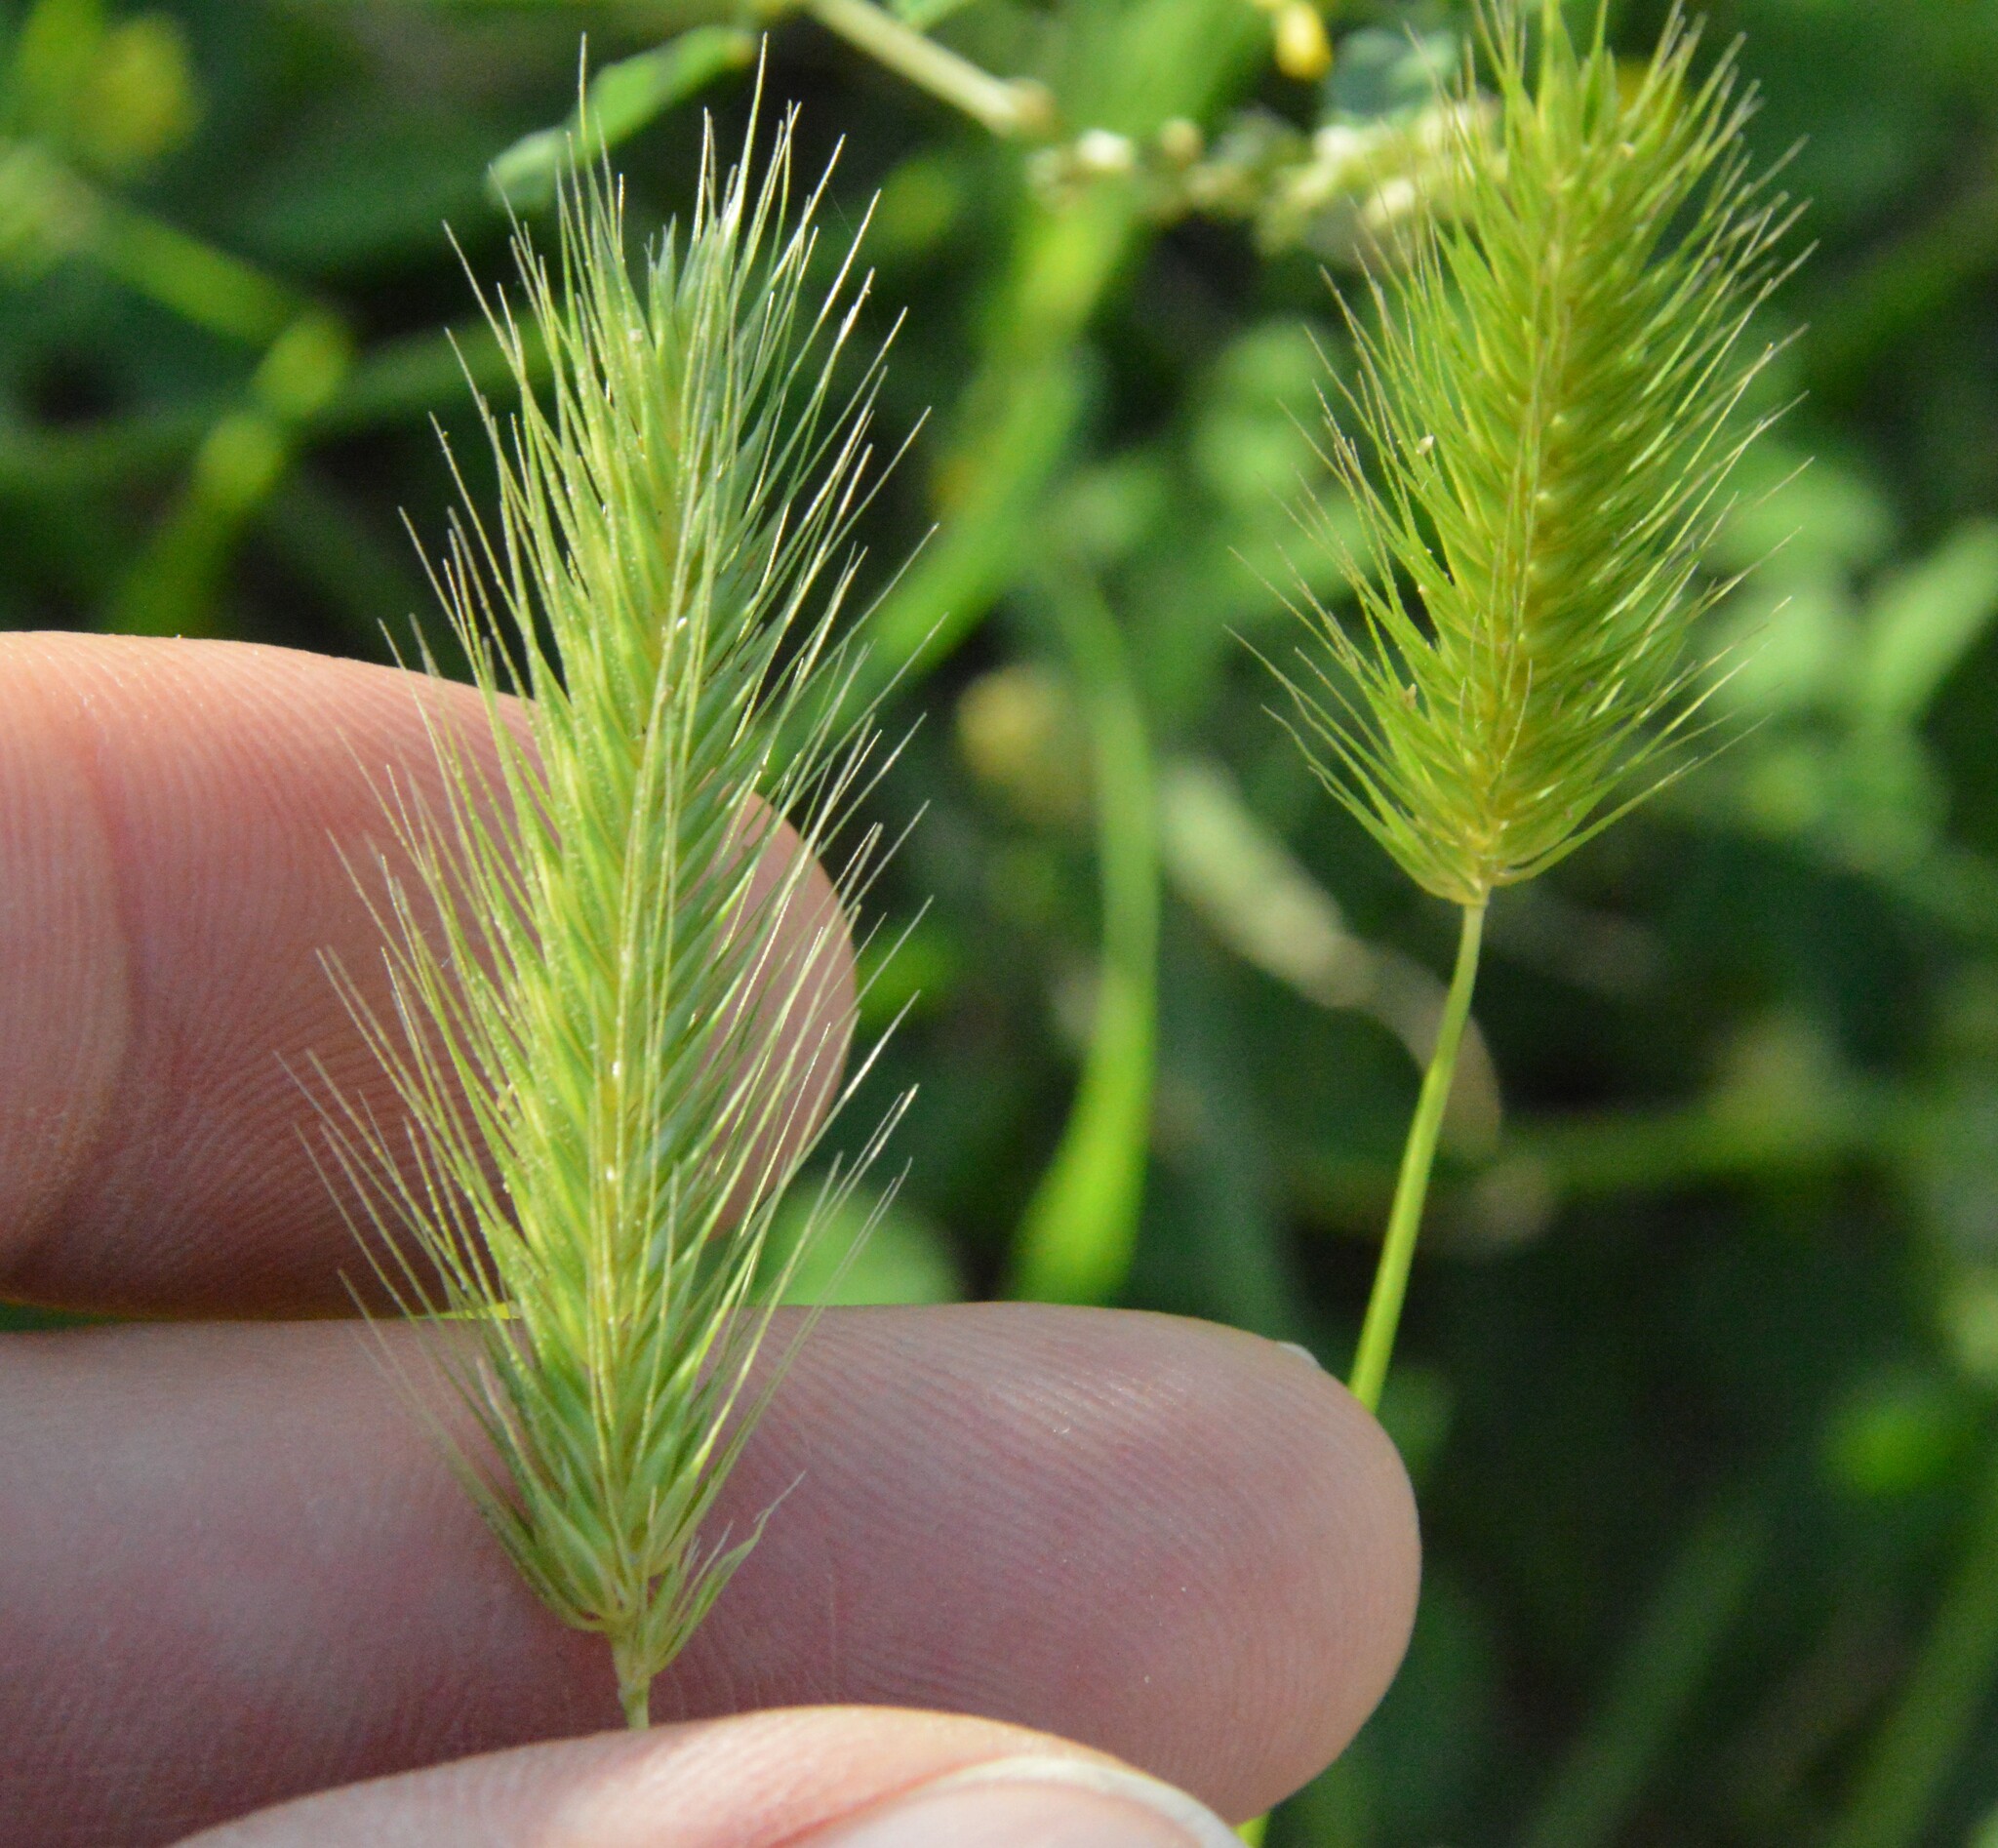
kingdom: Plantae
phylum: Tracheophyta
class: Liliopsida
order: Poales
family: Poaceae
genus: Hordeum
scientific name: Hordeum pusillum
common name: Little barley
